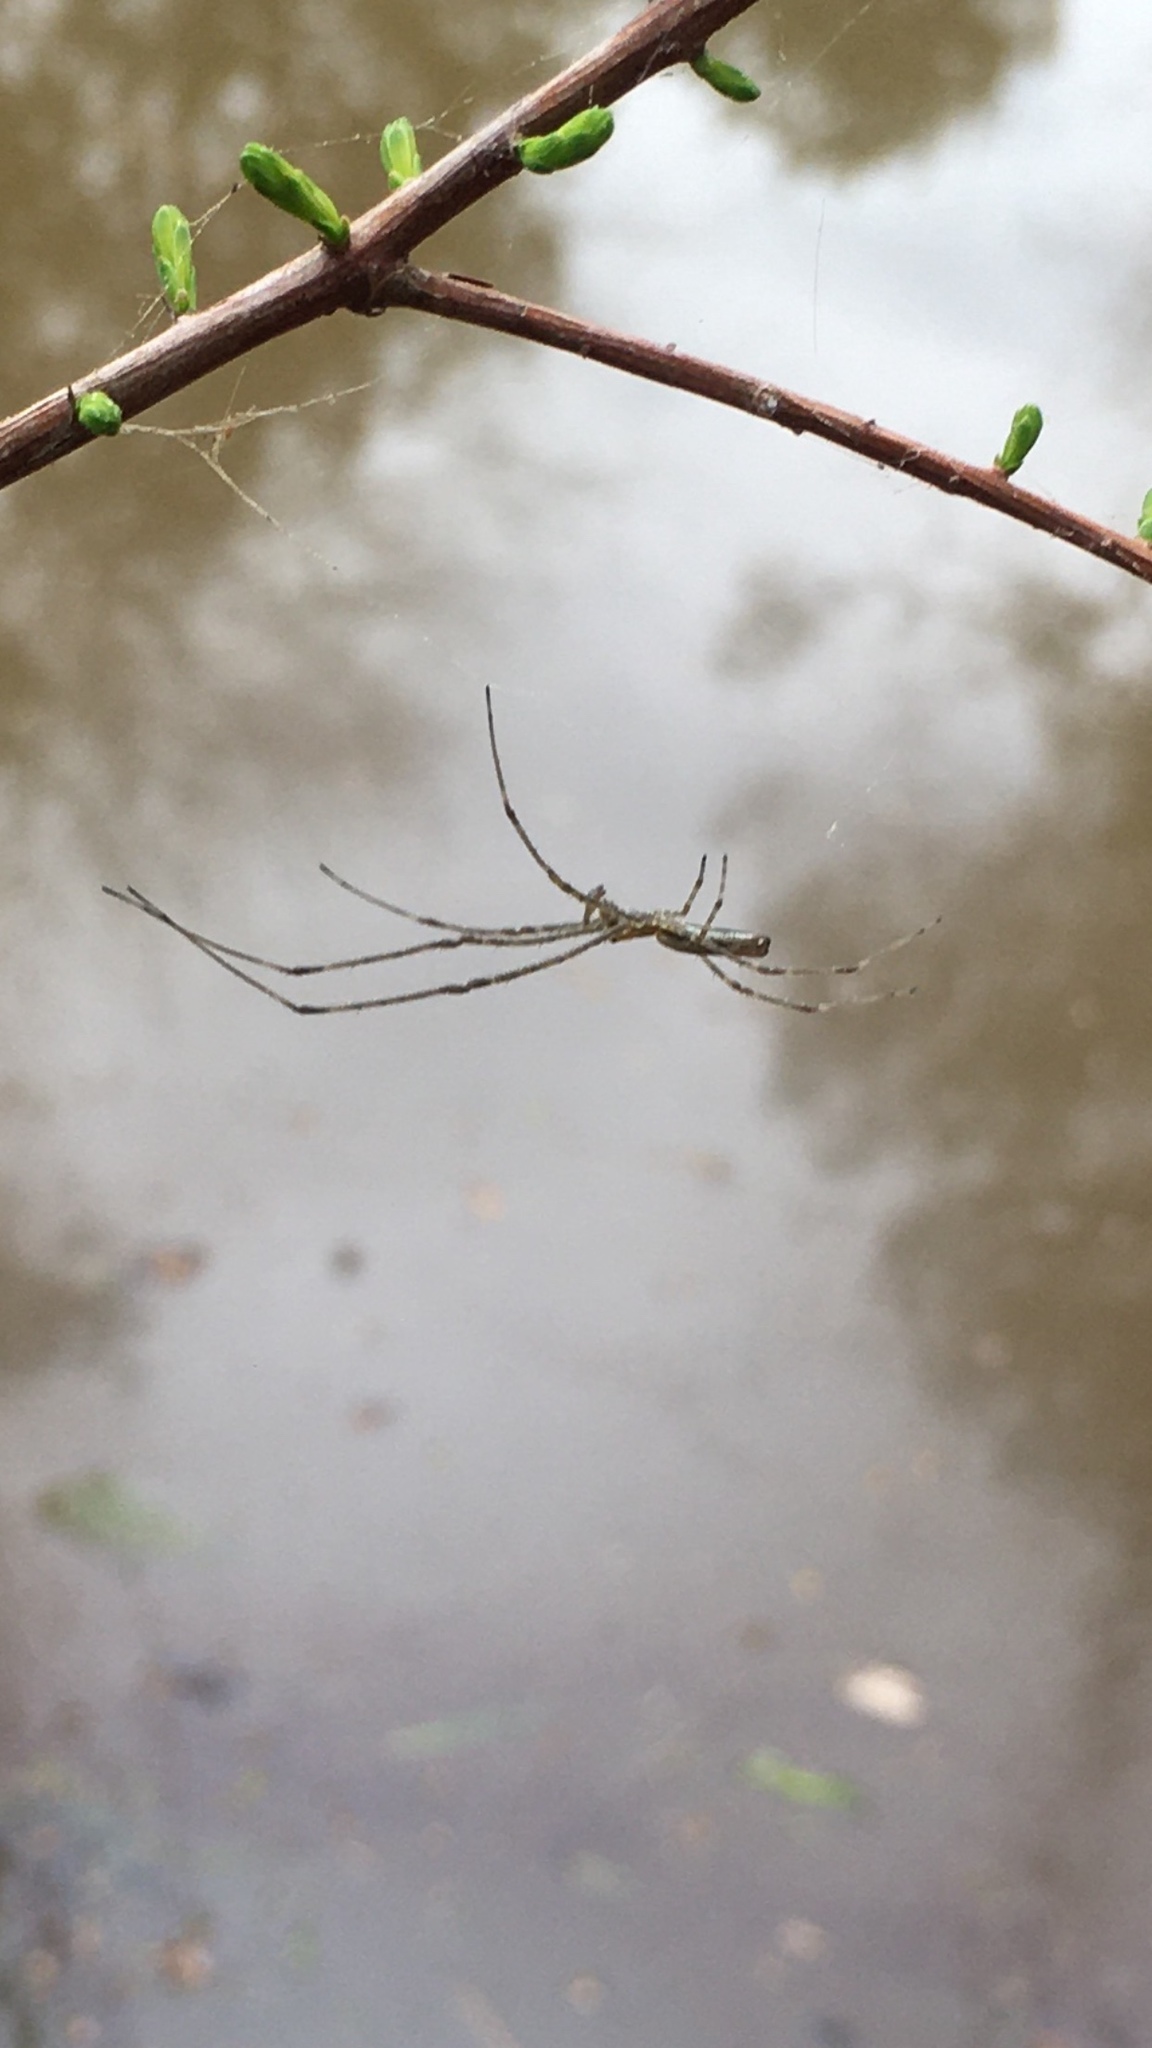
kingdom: Animalia
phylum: Arthropoda
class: Arachnida
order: Araneae
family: Tetragnathidae
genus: Tetragnatha
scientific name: Tetragnatha
